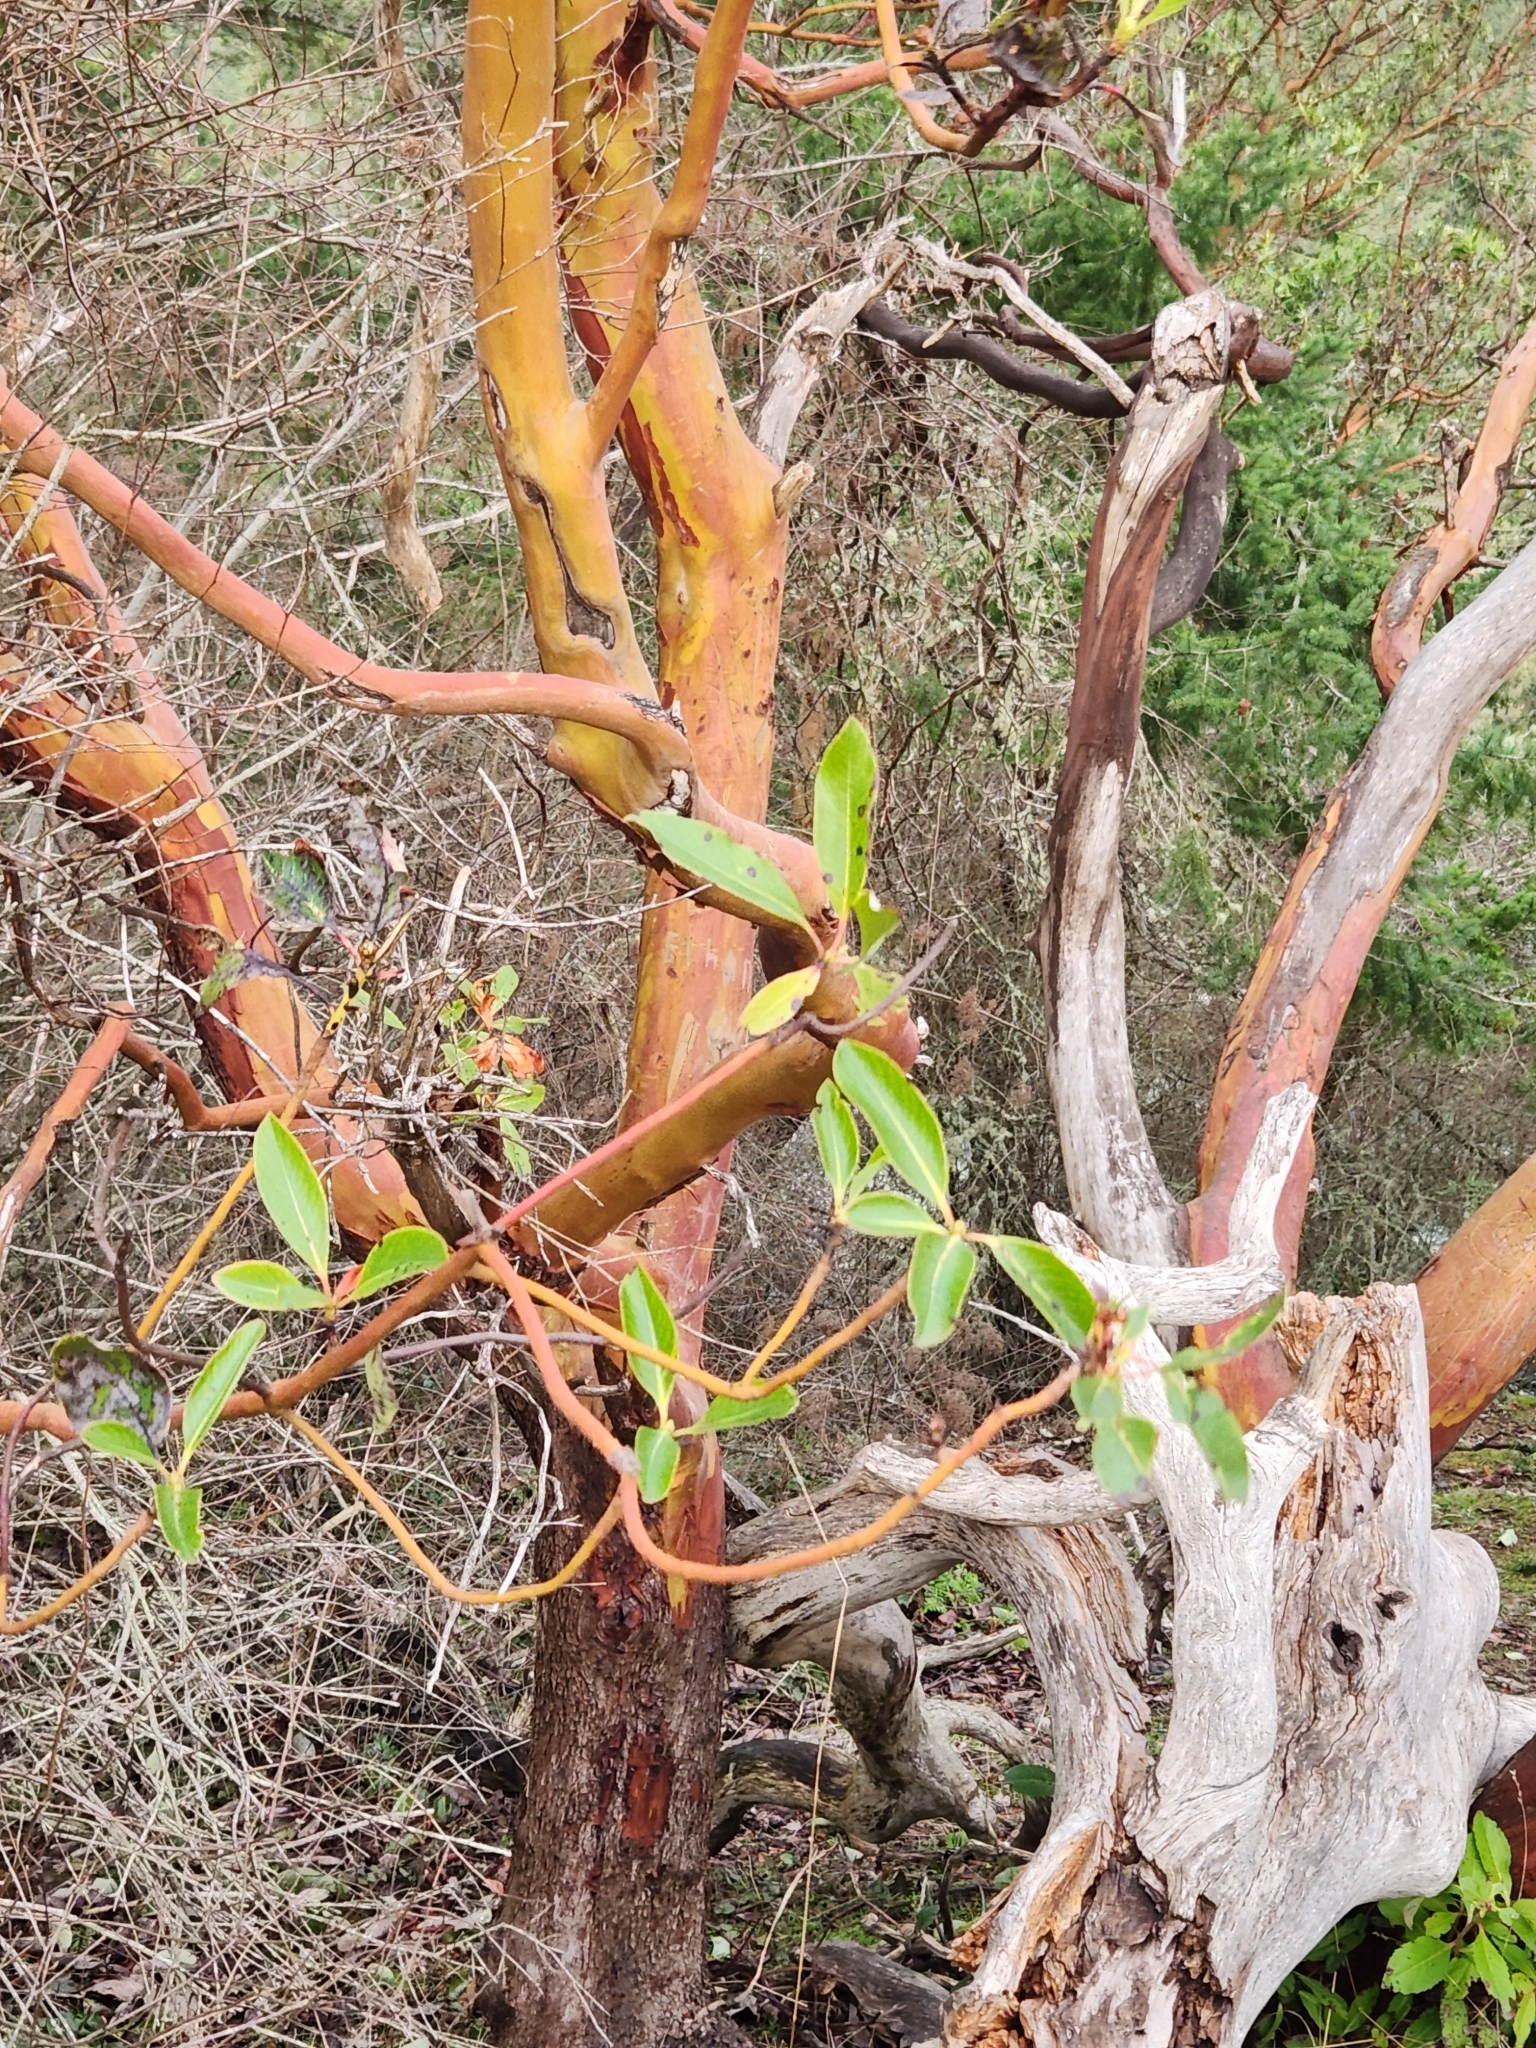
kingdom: Plantae
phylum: Tracheophyta
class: Magnoliopsida
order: Ericales
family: Ericaceae
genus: Arbutus
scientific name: Arbutus menziesii
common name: Pacific madrone
